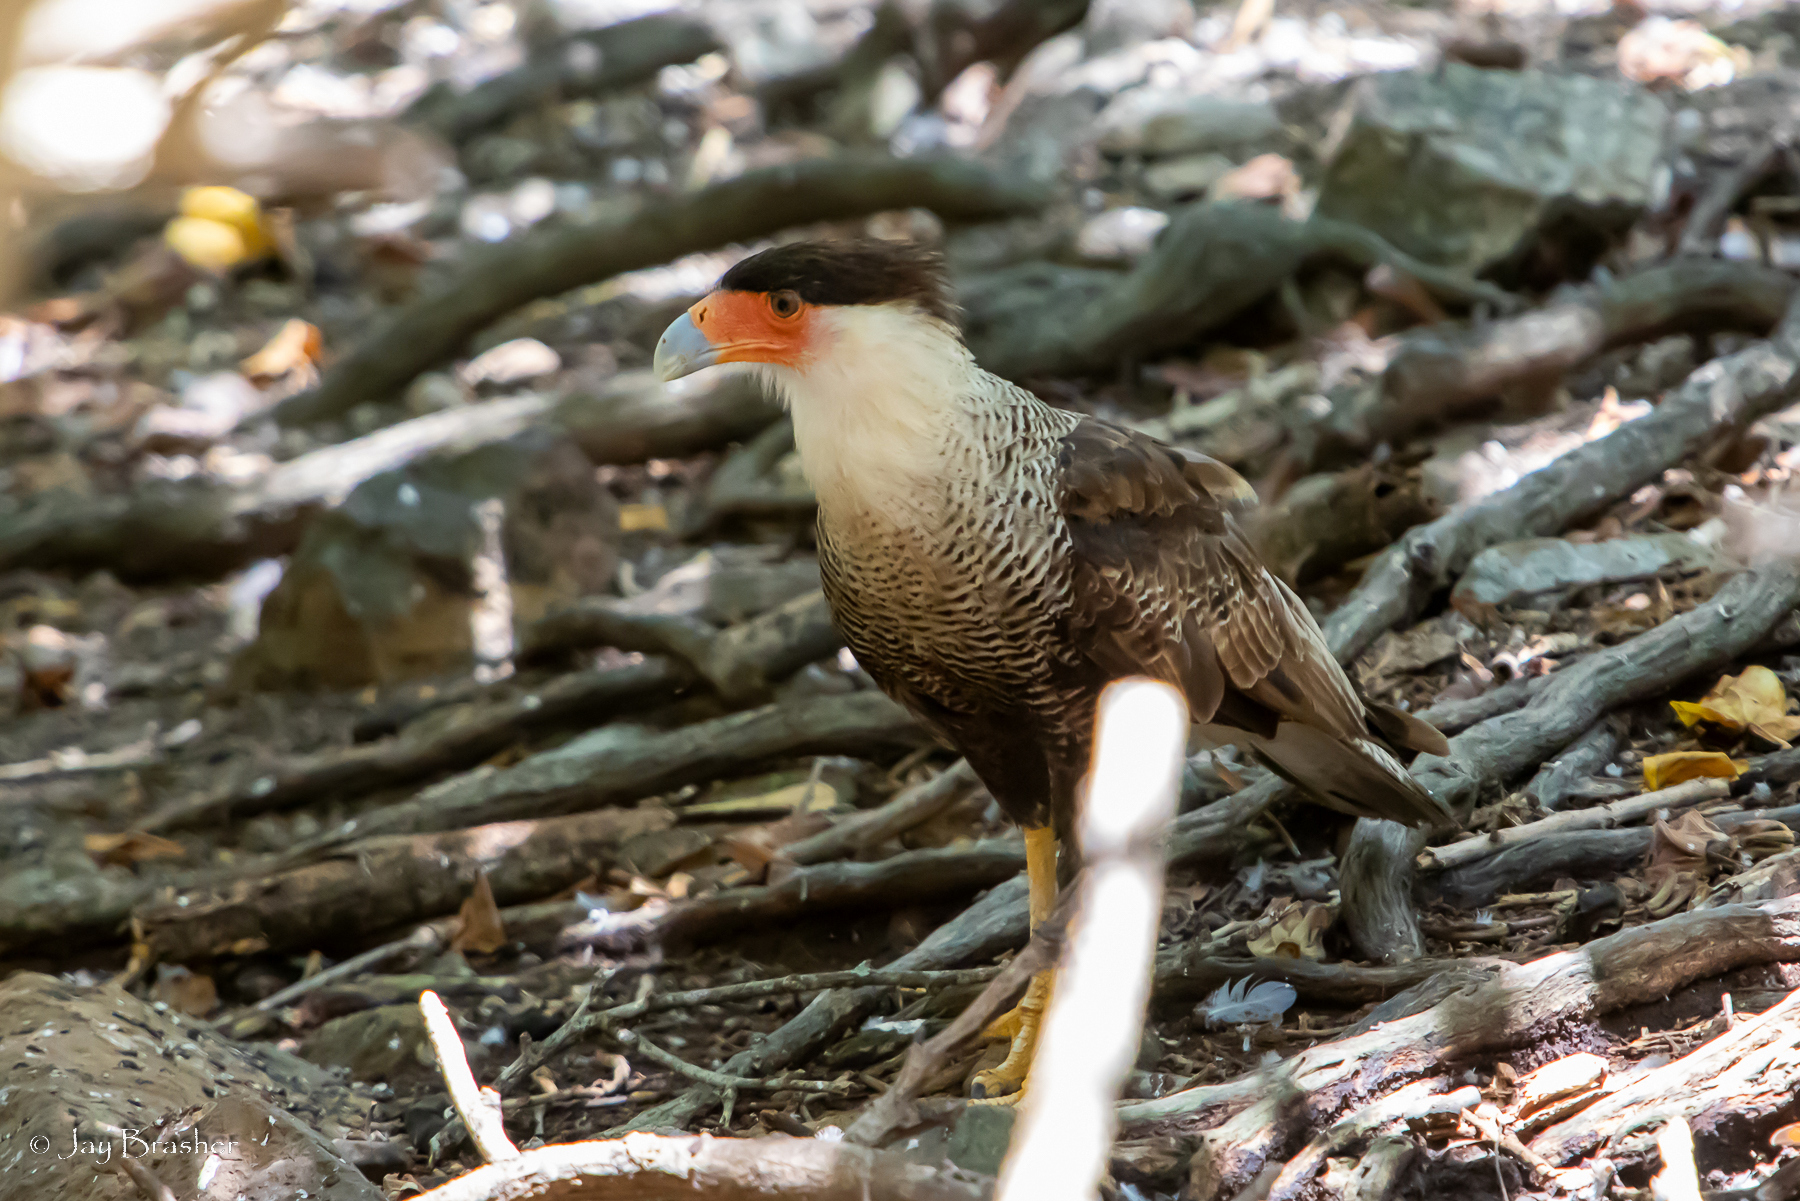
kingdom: Animalia
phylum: Chordata
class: Aves
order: Falconiformes
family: Falconidae
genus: Caracara
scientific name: Caracara plancus
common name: Southern caracara
